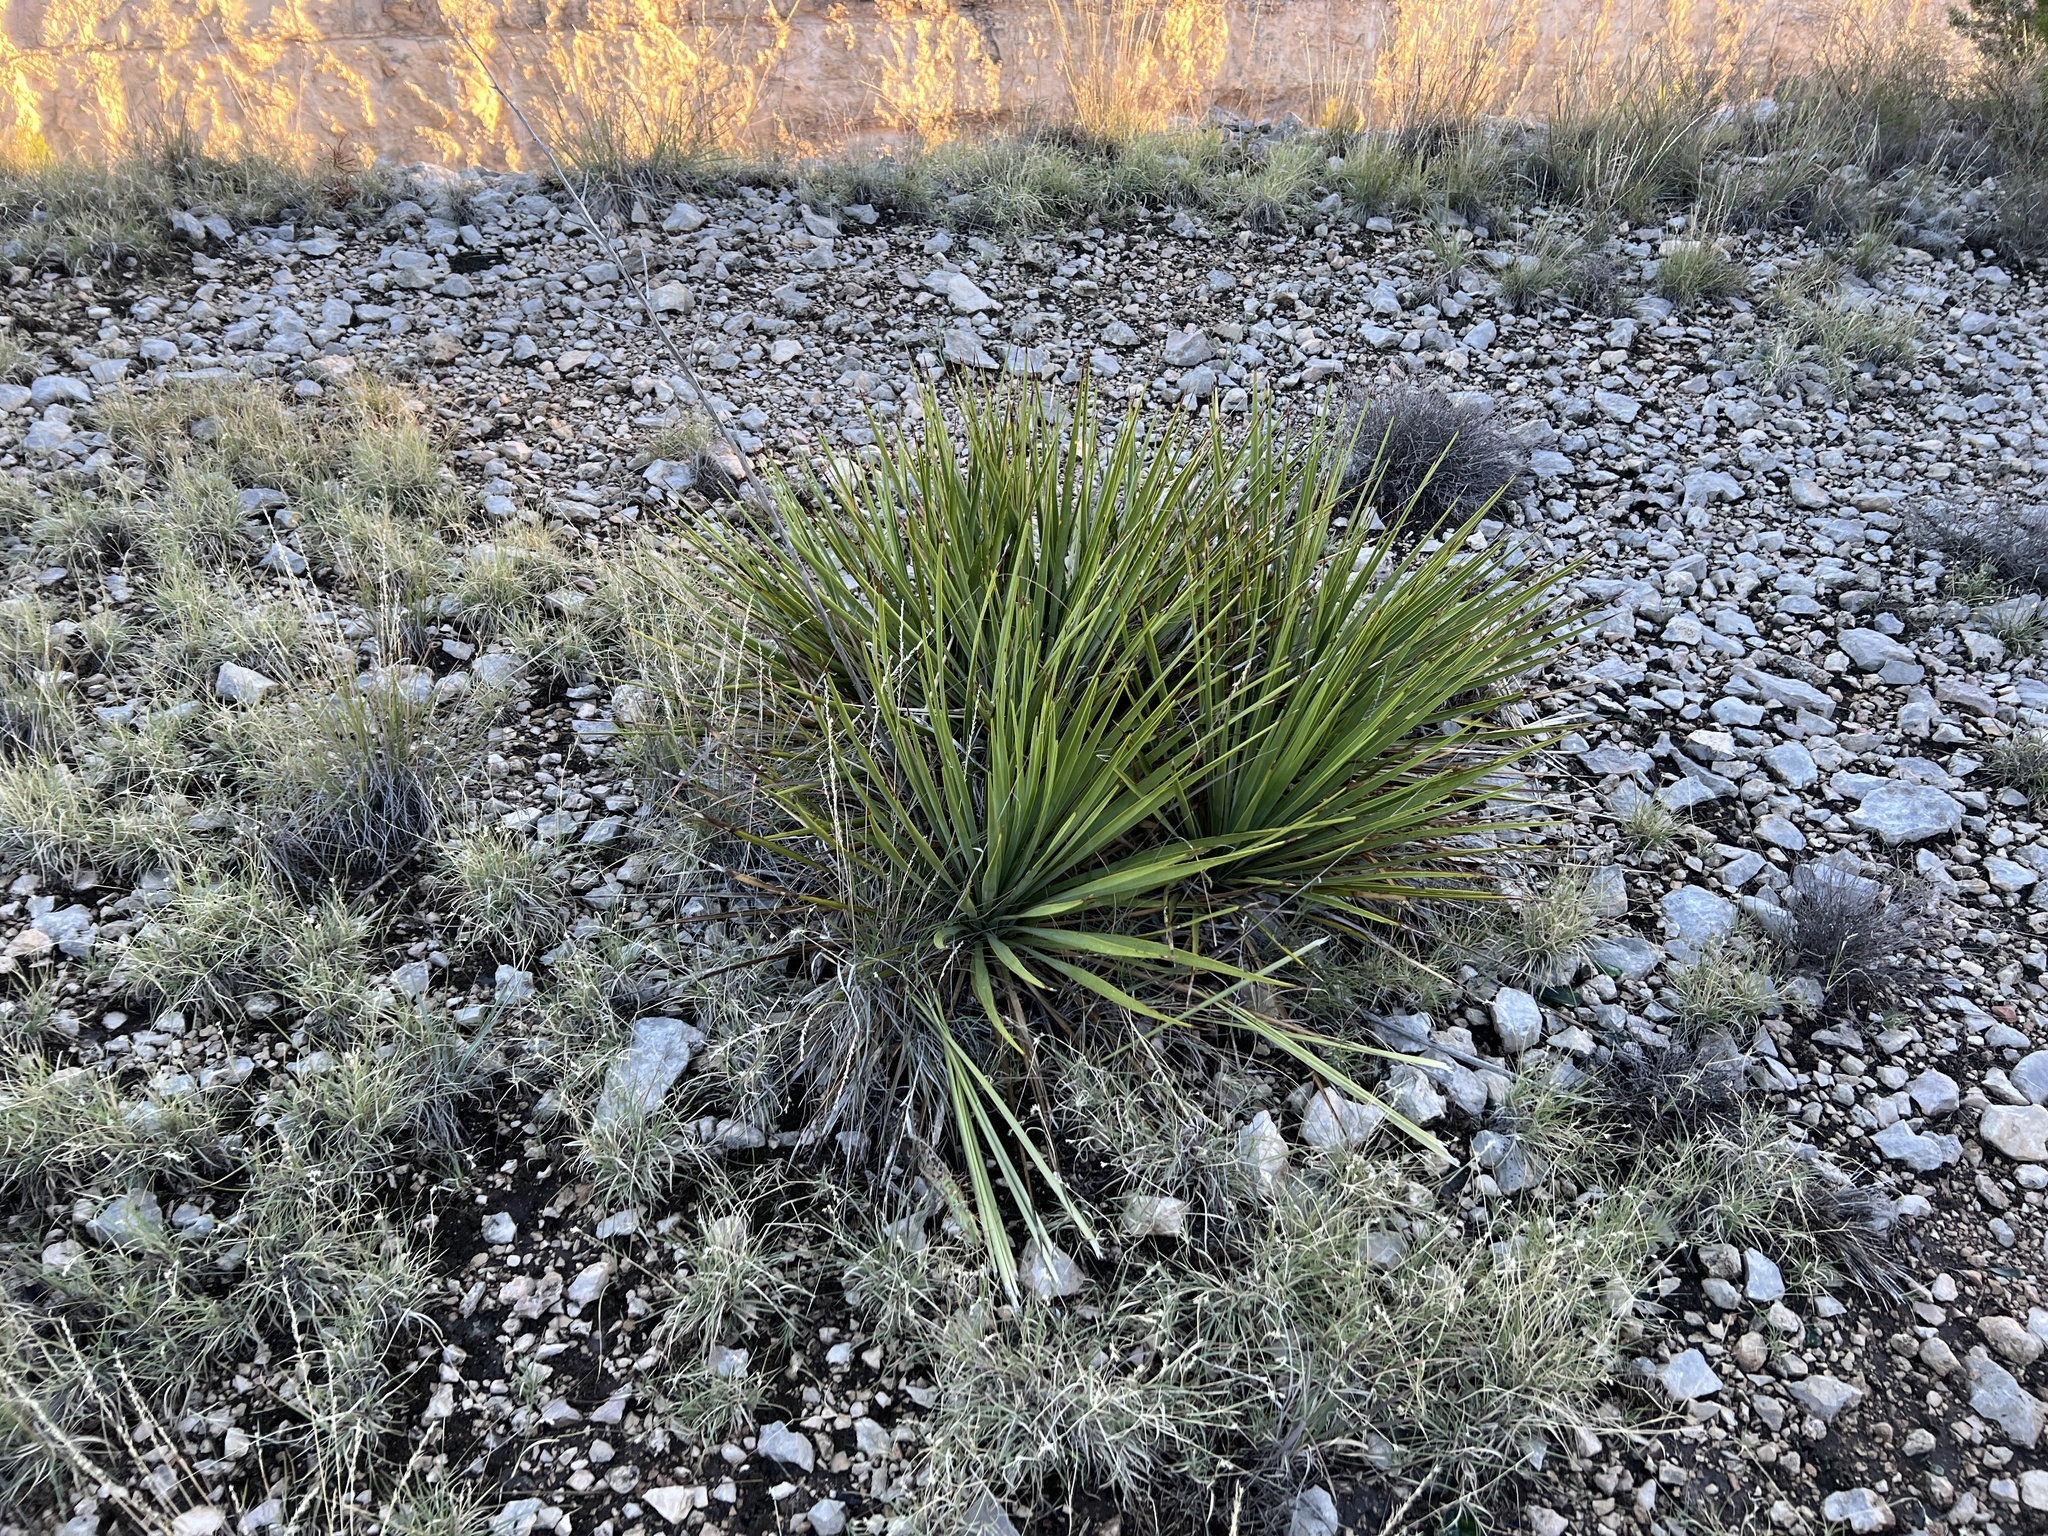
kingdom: Plantae
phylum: Tracheophyta
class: Liliopsida
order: Asparagales
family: Asparagaceae
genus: Yucca
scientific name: Yucca reverchonii
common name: San angelo yucca
